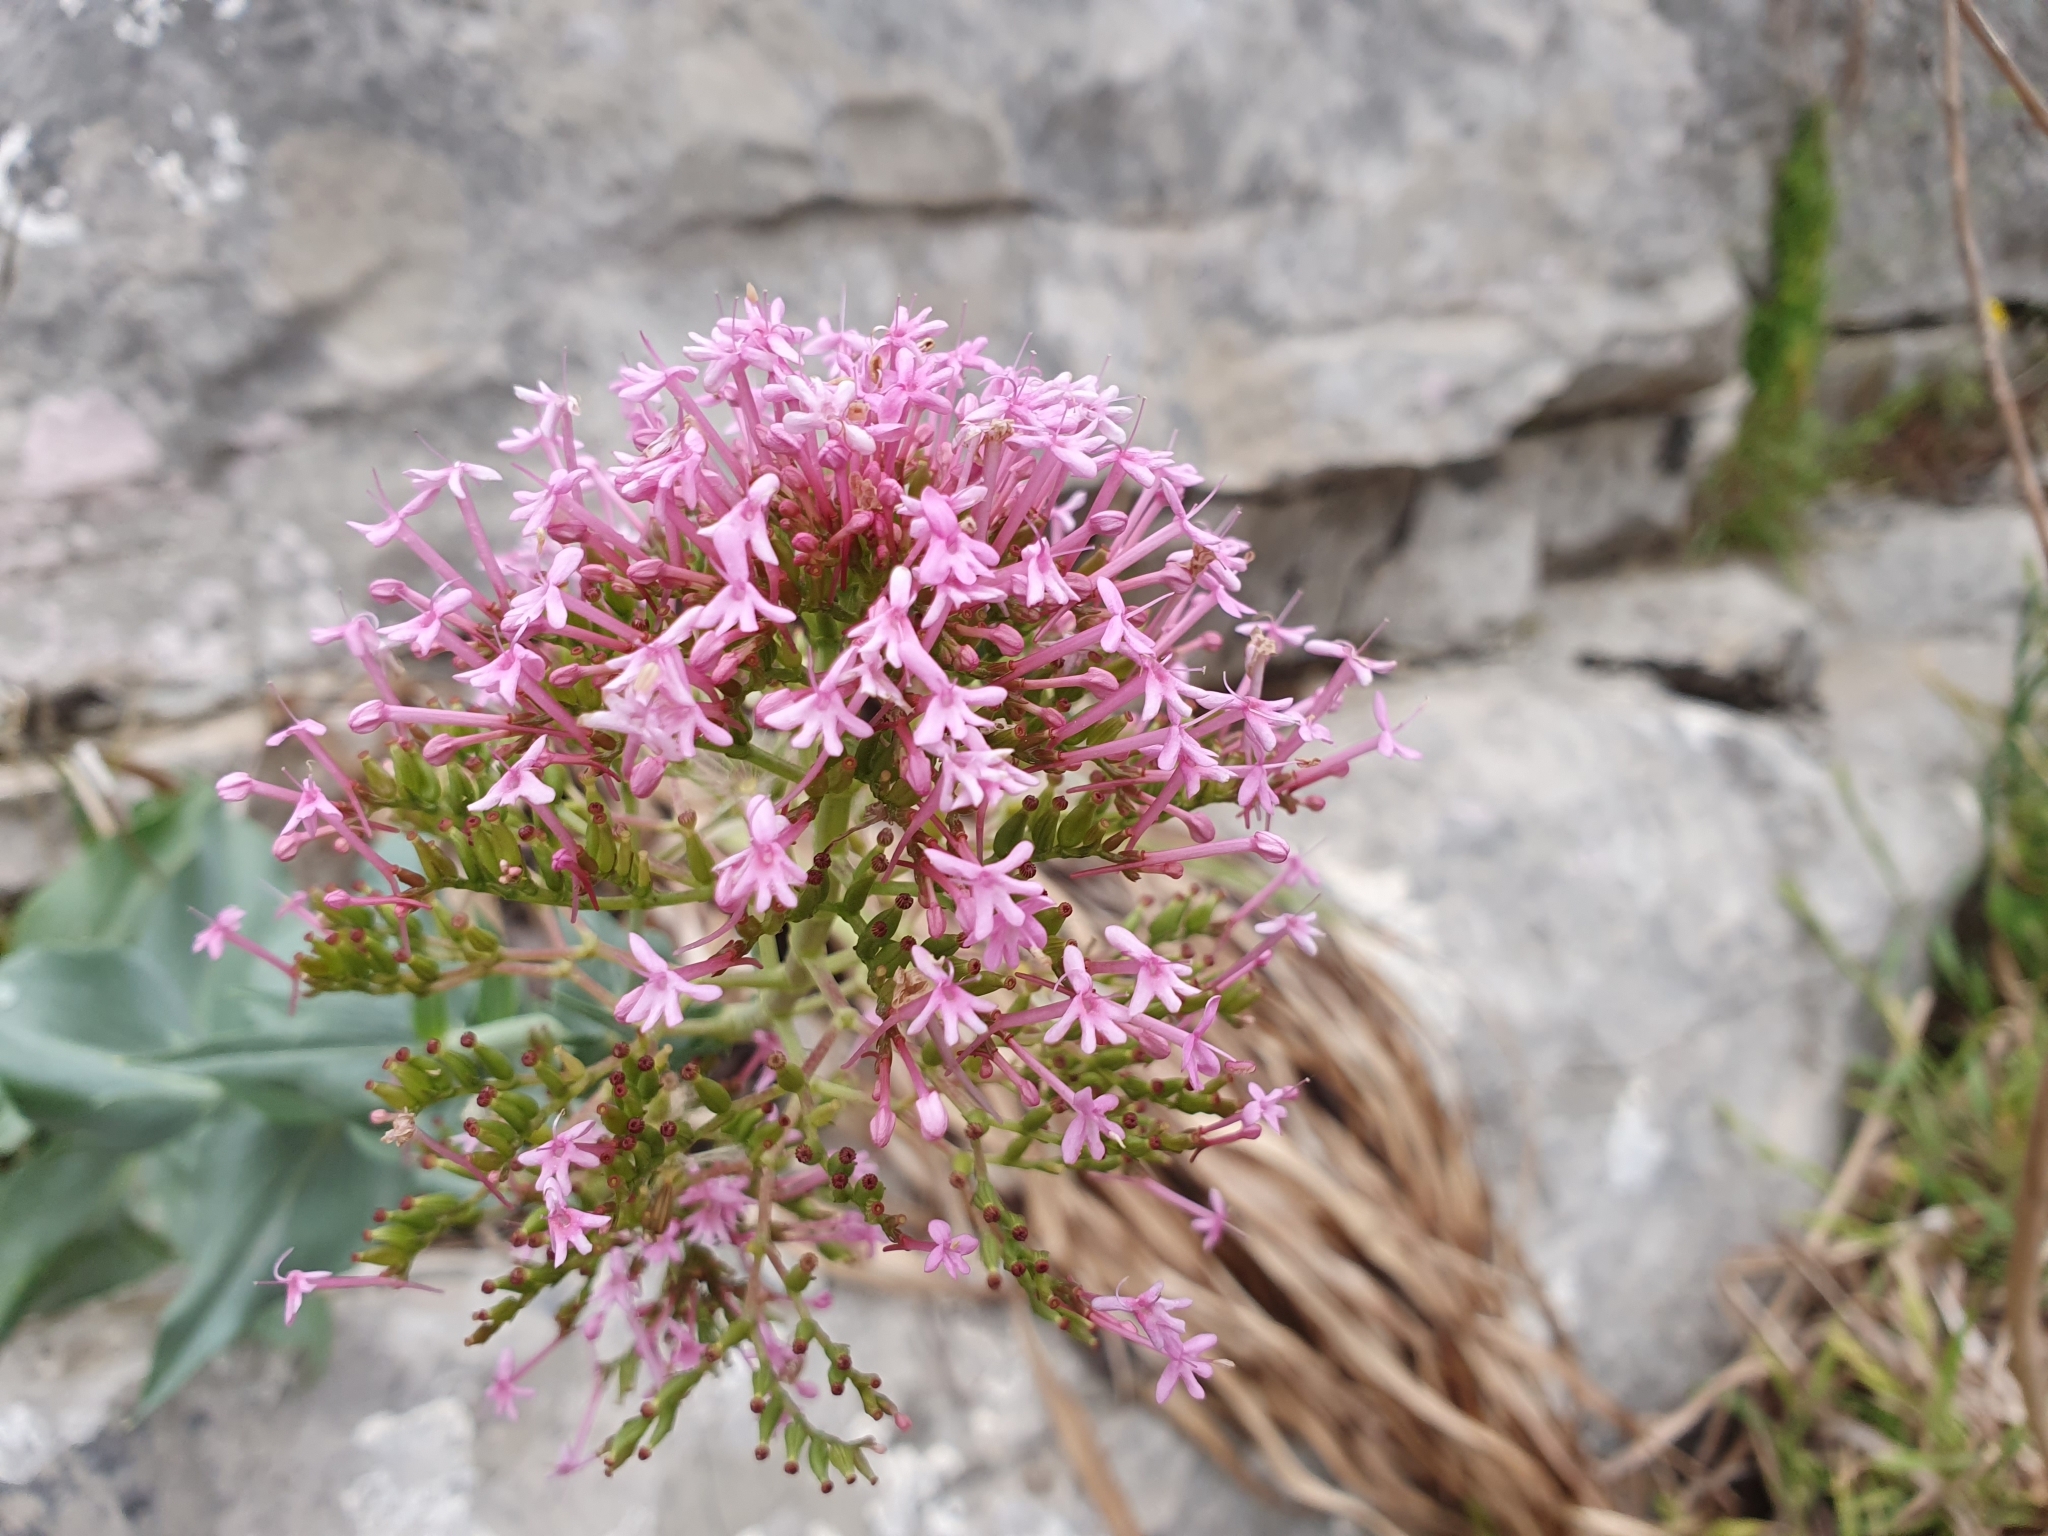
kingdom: Plantae
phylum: Tracheophyta
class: Magnoliopsida
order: Dipsacales
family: Caprifoliaceae
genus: Centranthus
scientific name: Centranthus ruber
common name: Red valerian
